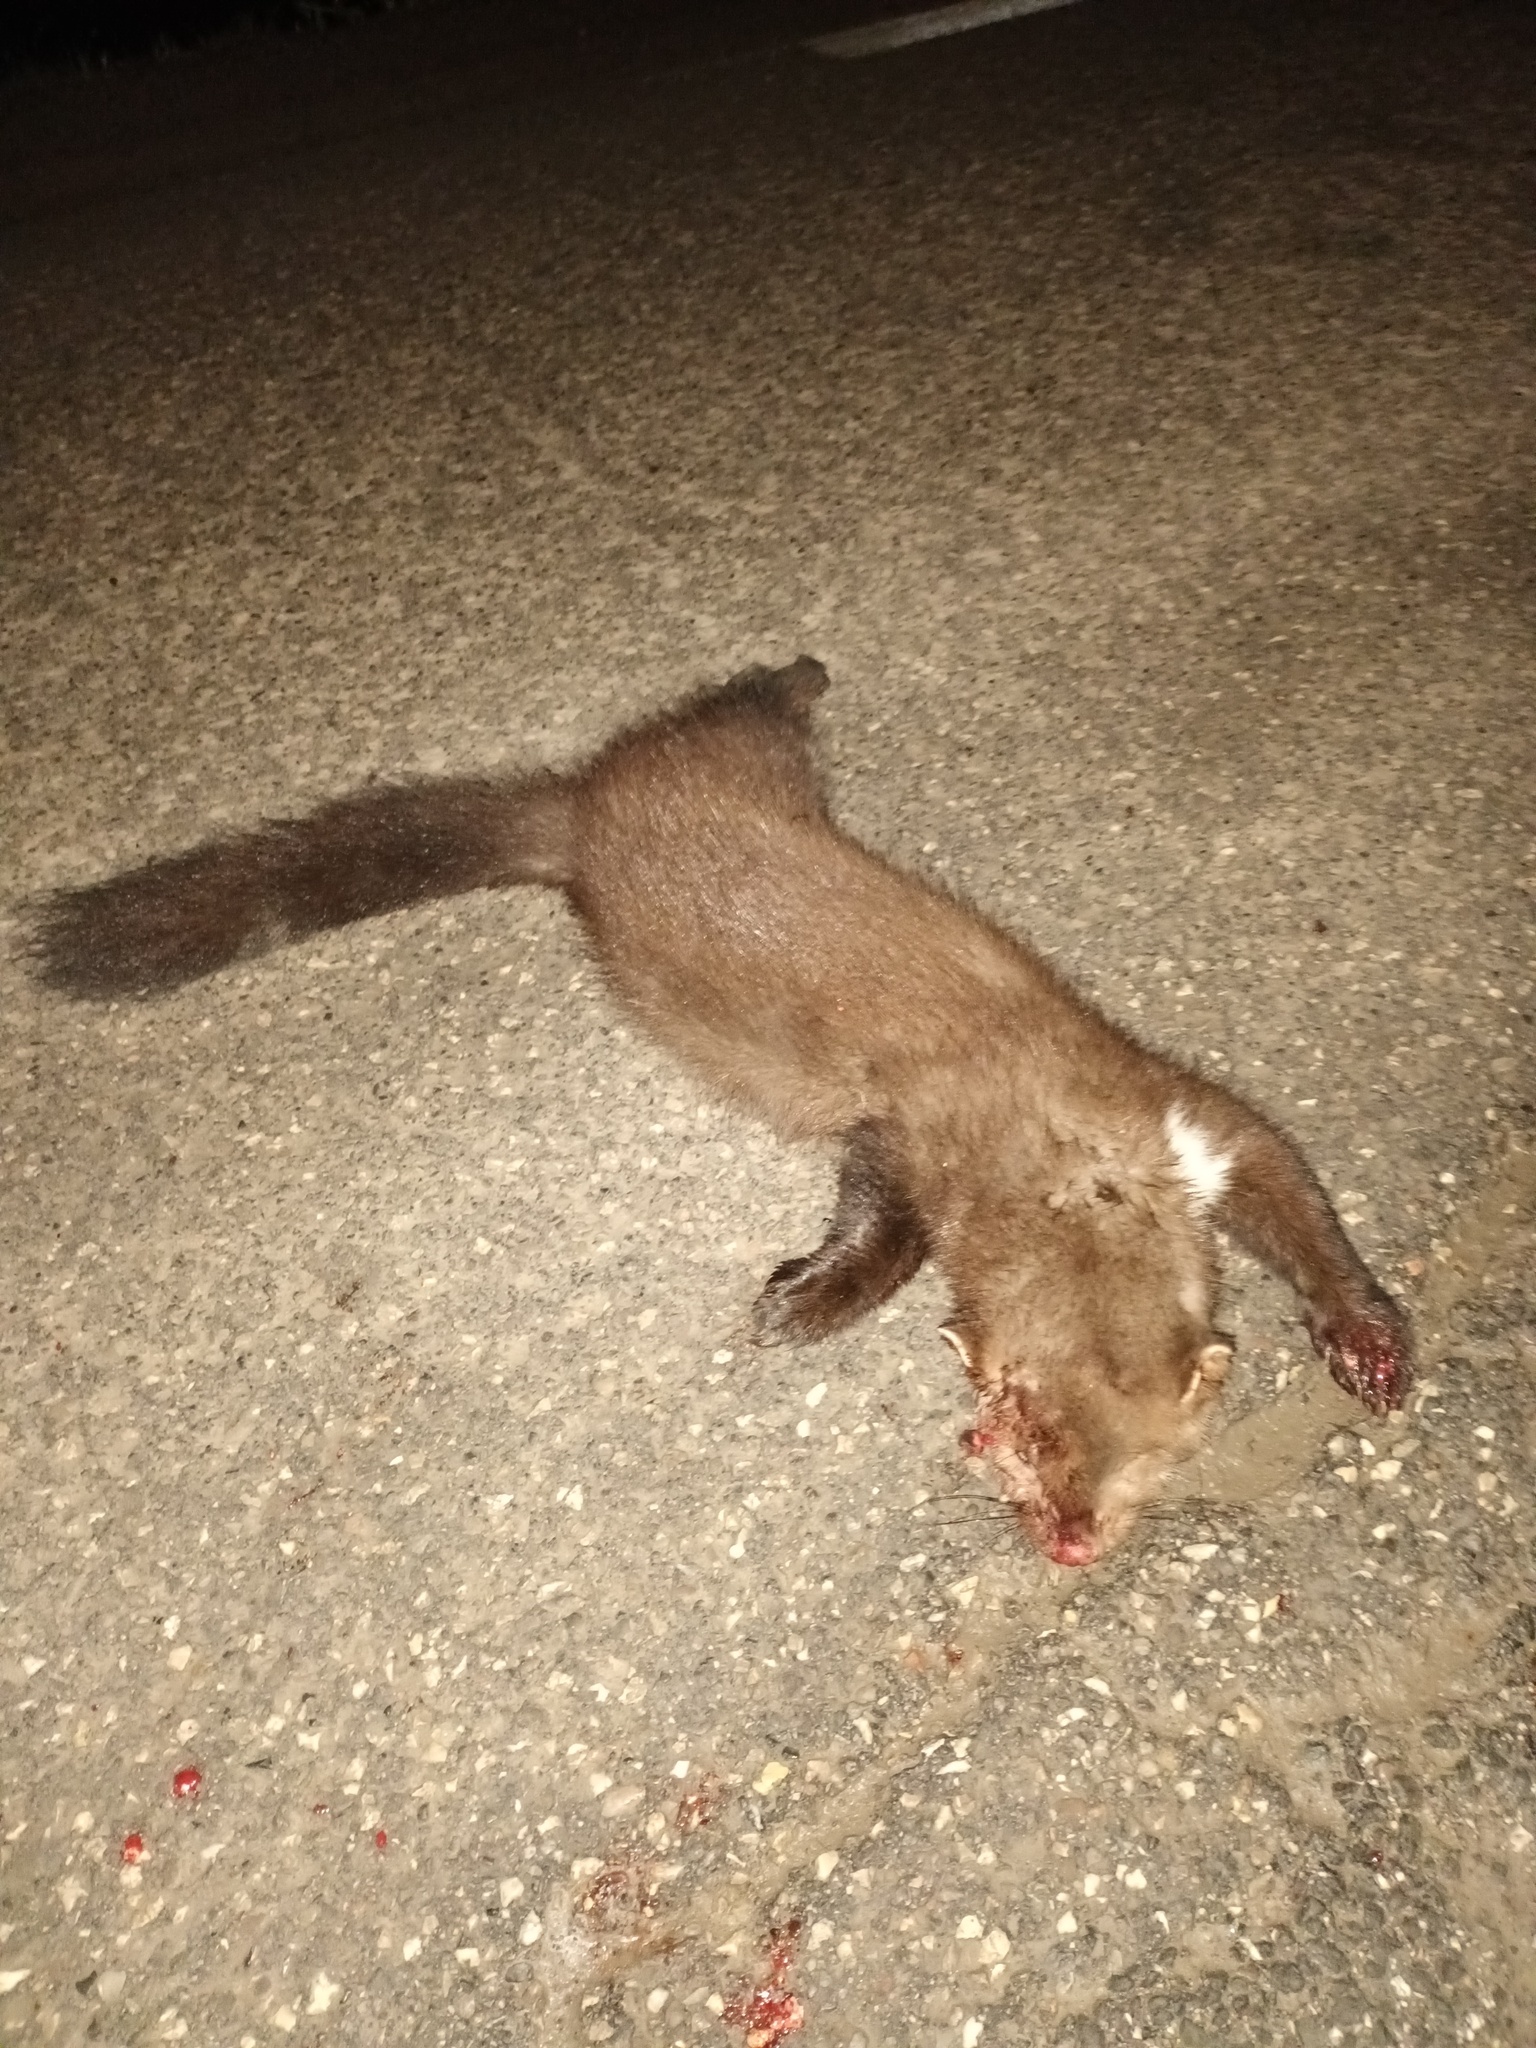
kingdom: Animalia
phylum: Chordata
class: Mammalia
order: Carnivora
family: Mustelidae
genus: Martes
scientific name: Martes foina
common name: Beech marten
